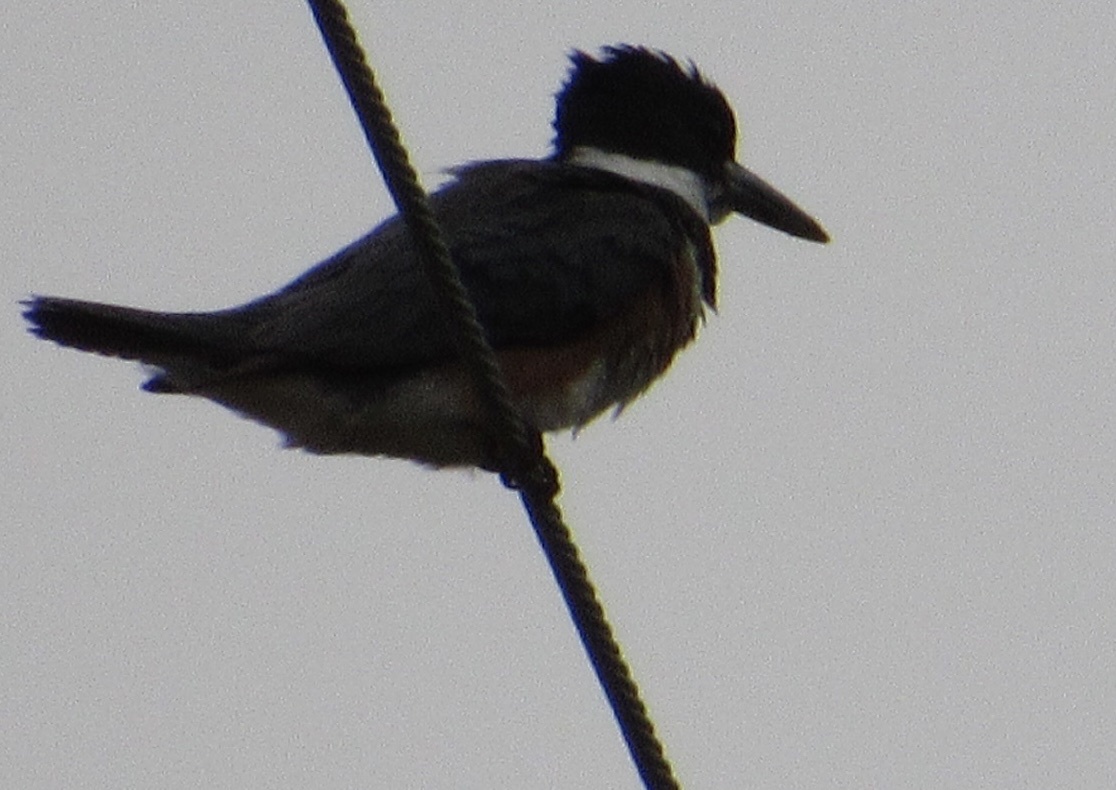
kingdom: Animalia
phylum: Chordata
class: Aves
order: Coraciiformes
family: Alcedinidae
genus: Megaceryle
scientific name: Megaceryle alcyon
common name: Belted kingfisher
